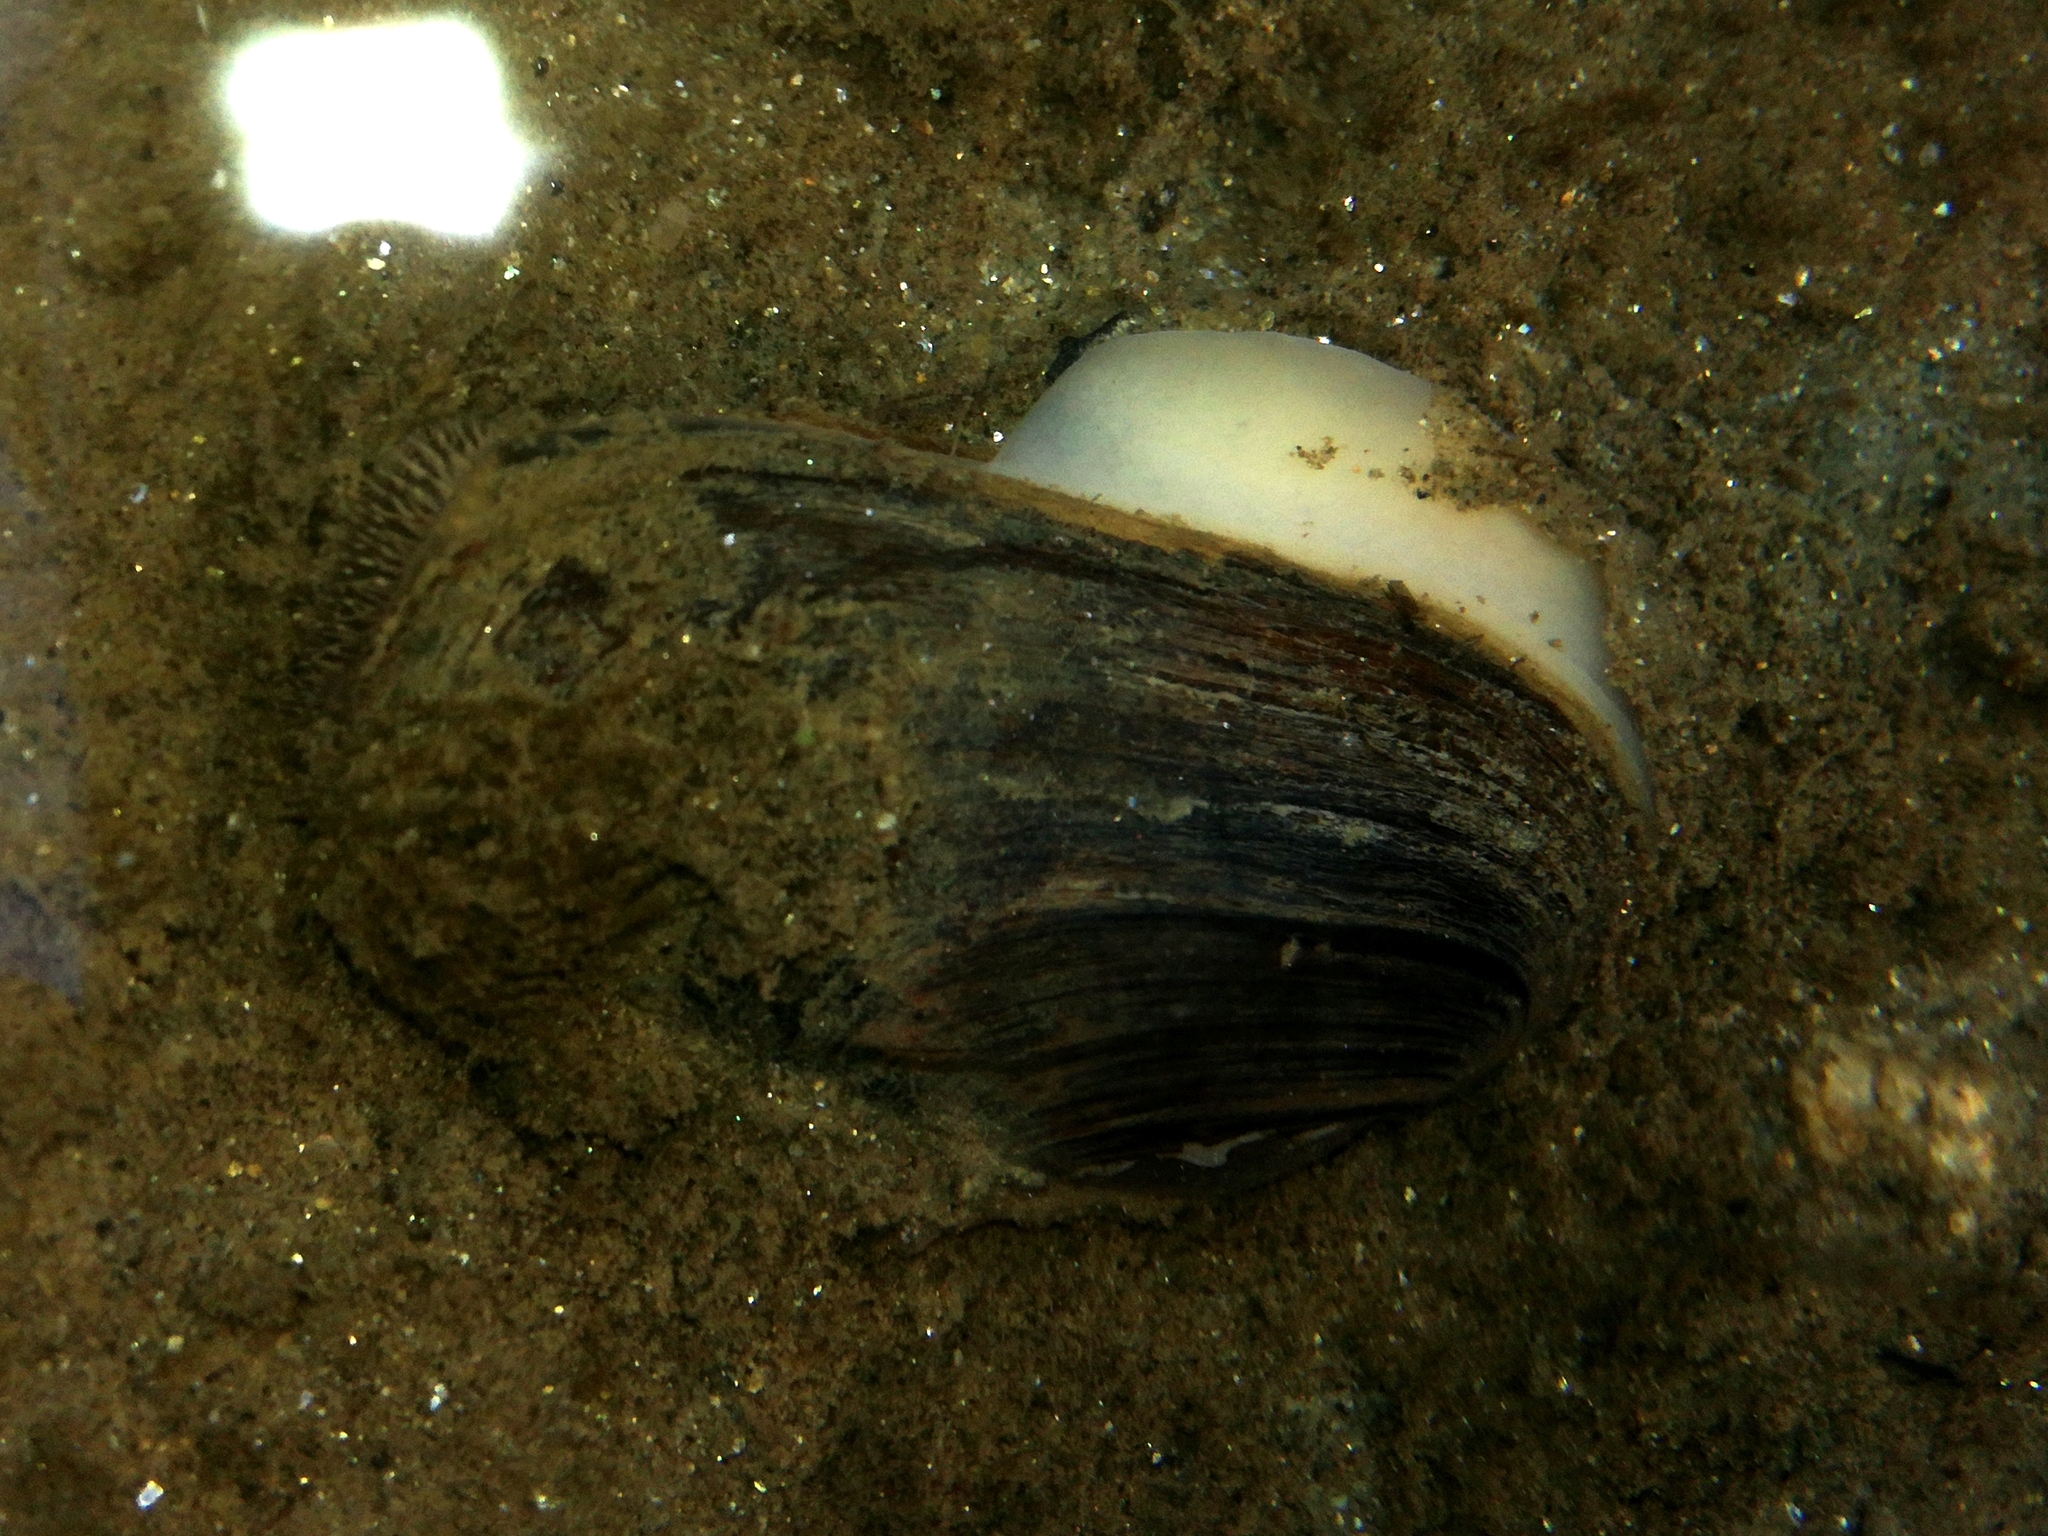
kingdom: Animalia
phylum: Mollusca
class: Bivalvia
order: Unionida
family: Unionidae
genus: Unio
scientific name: Unio crassus
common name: Thick shelled river mussel
